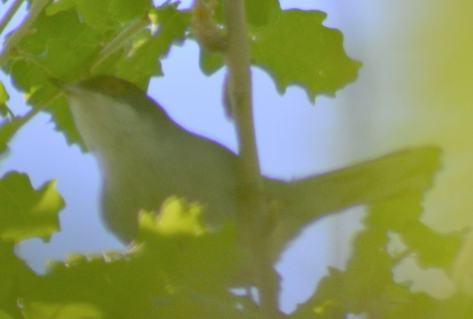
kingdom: Animalia
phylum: Chordata
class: Aves
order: Passeriformes
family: Sylviidae
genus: Curruca
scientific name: Curruca melanocephala
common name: Sardinian warbler
